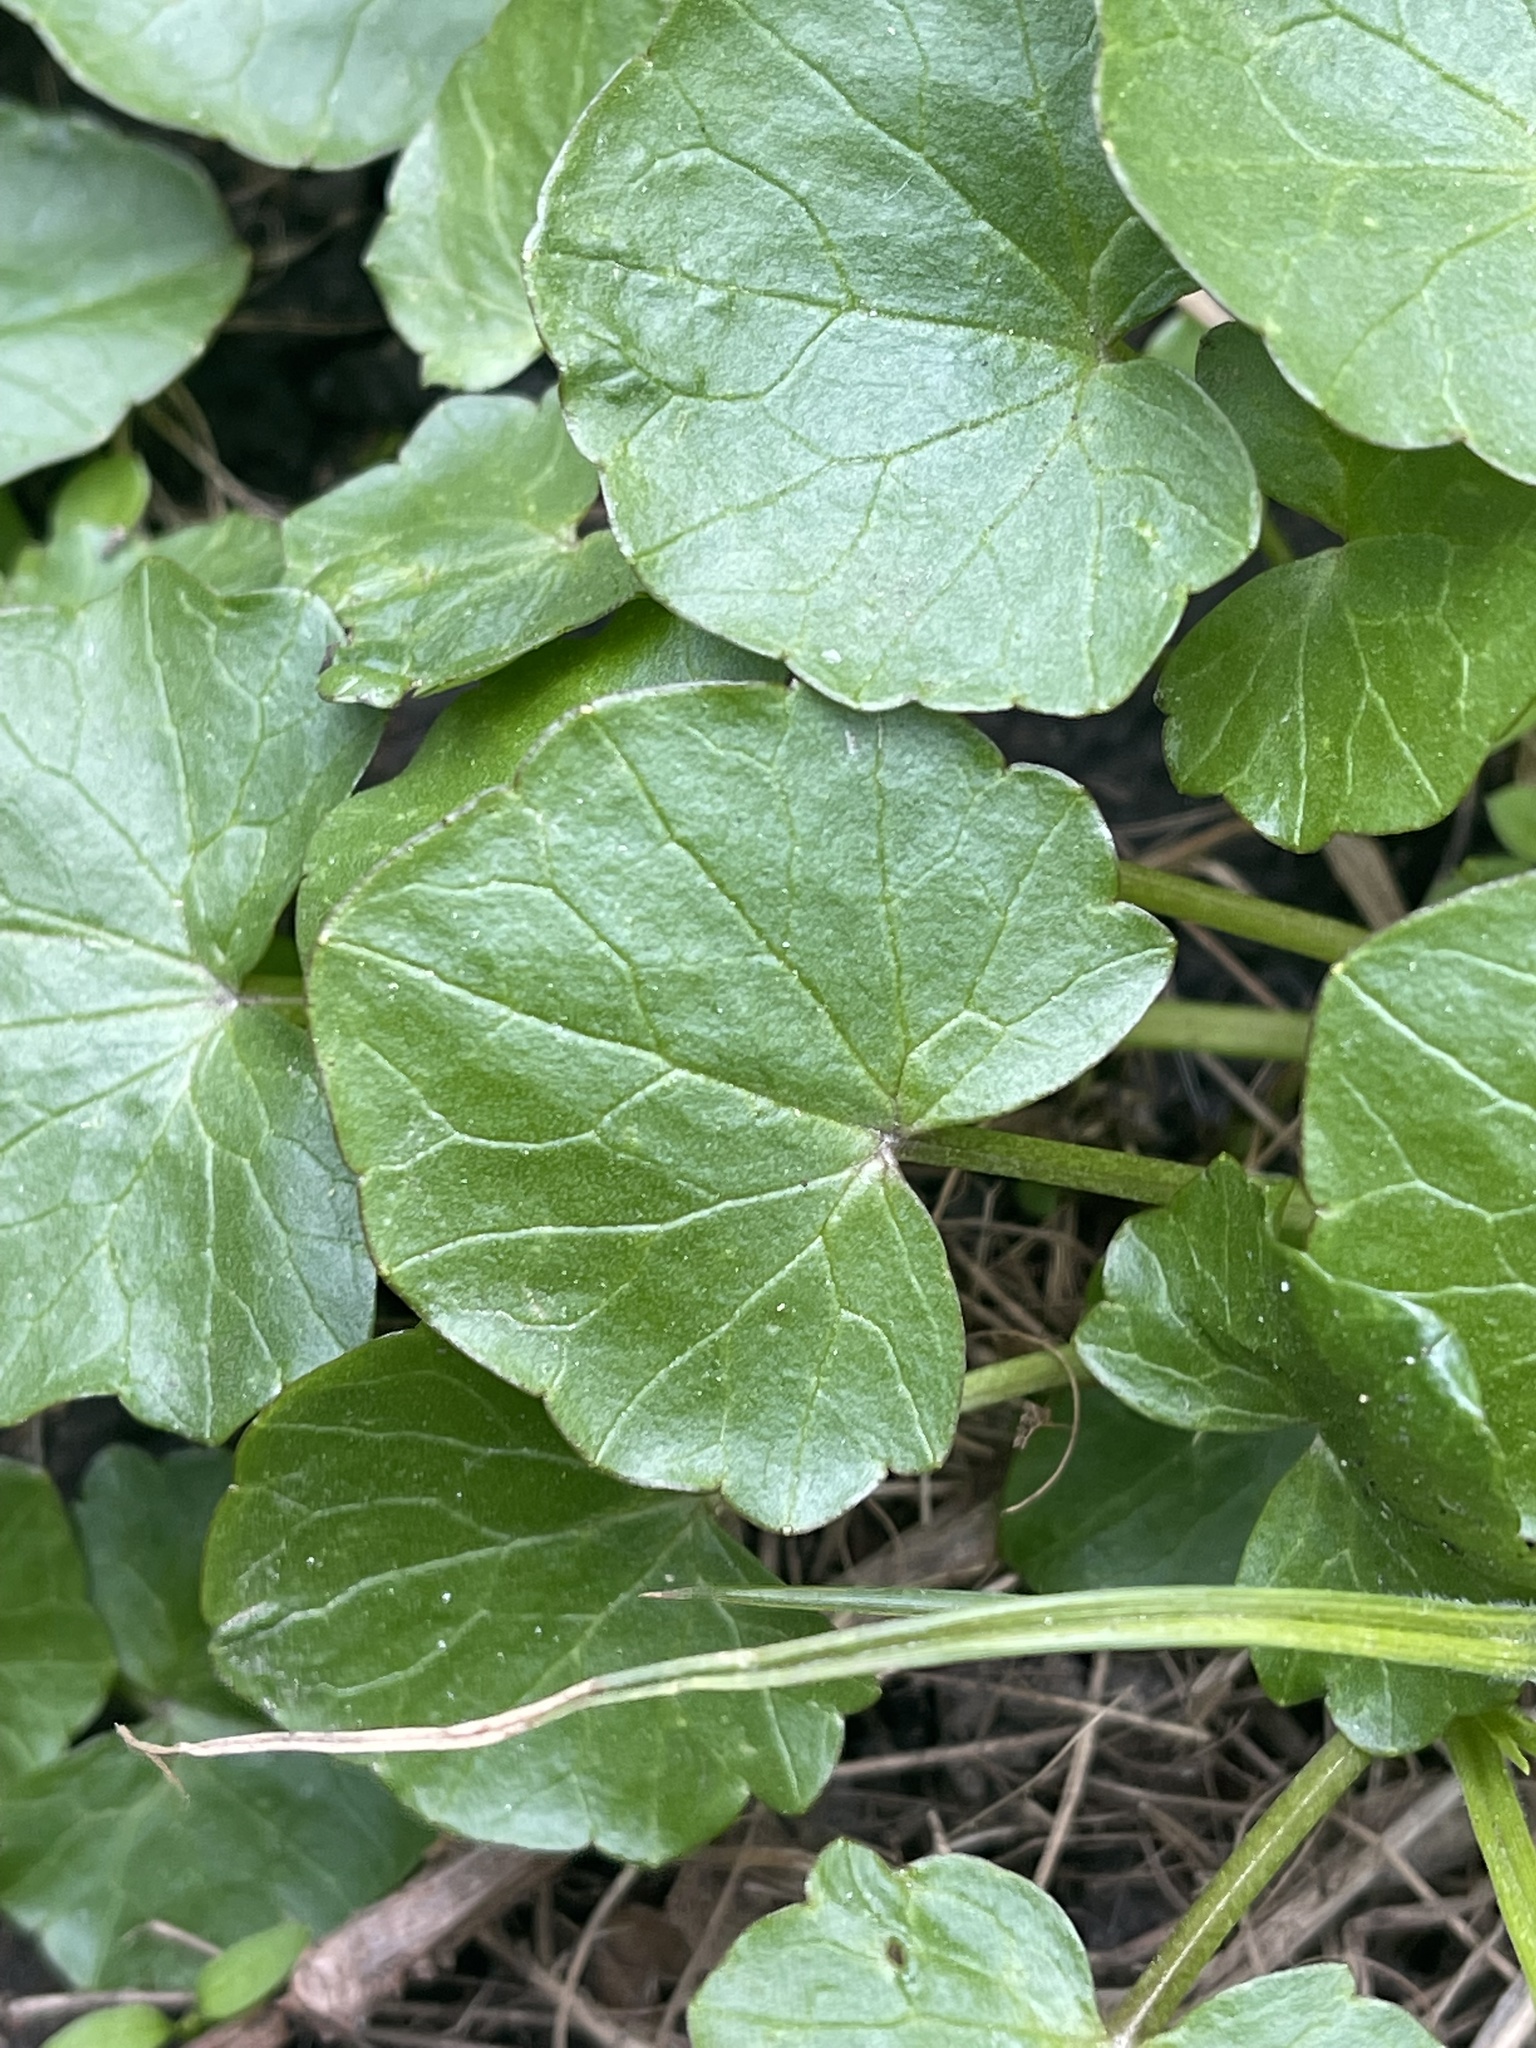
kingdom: Plantae
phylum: Tracheophyta
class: Magnoliopsida
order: Ranunculales
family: Ranunculaceae
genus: Ficaria
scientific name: Ficaria verna
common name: Lesser celandine
